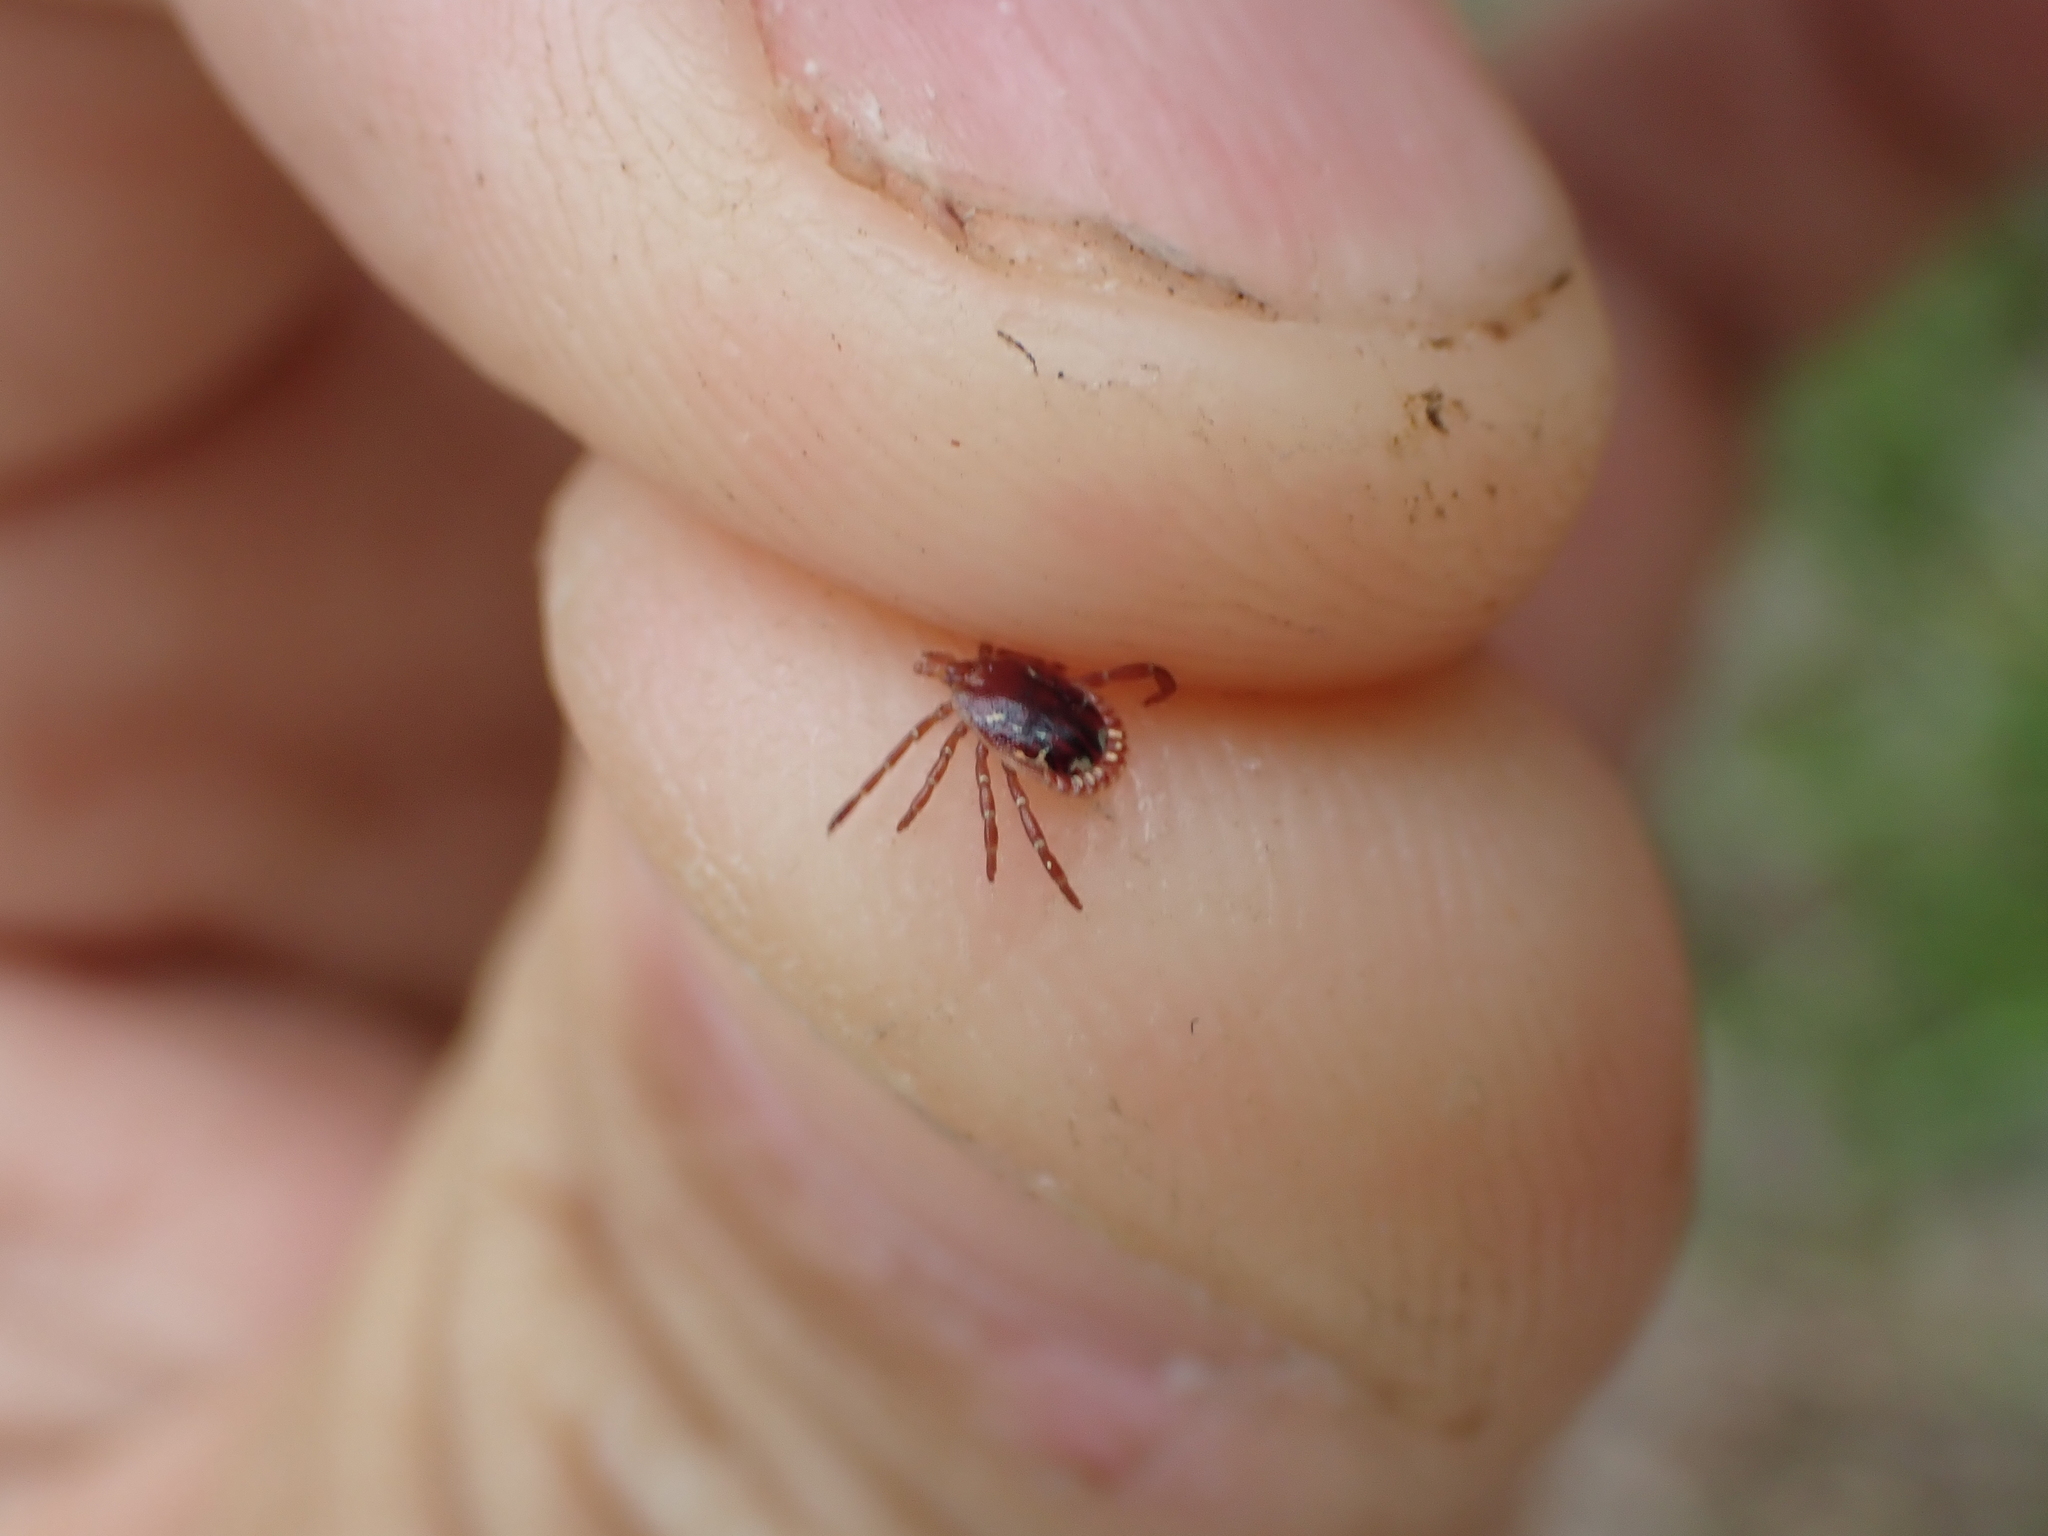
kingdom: Animalia
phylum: Arthropoda
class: Arachnida
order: Ixodida
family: Ixodidae
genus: Amblyomma
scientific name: Amblyomma americanum
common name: Lone star tick
